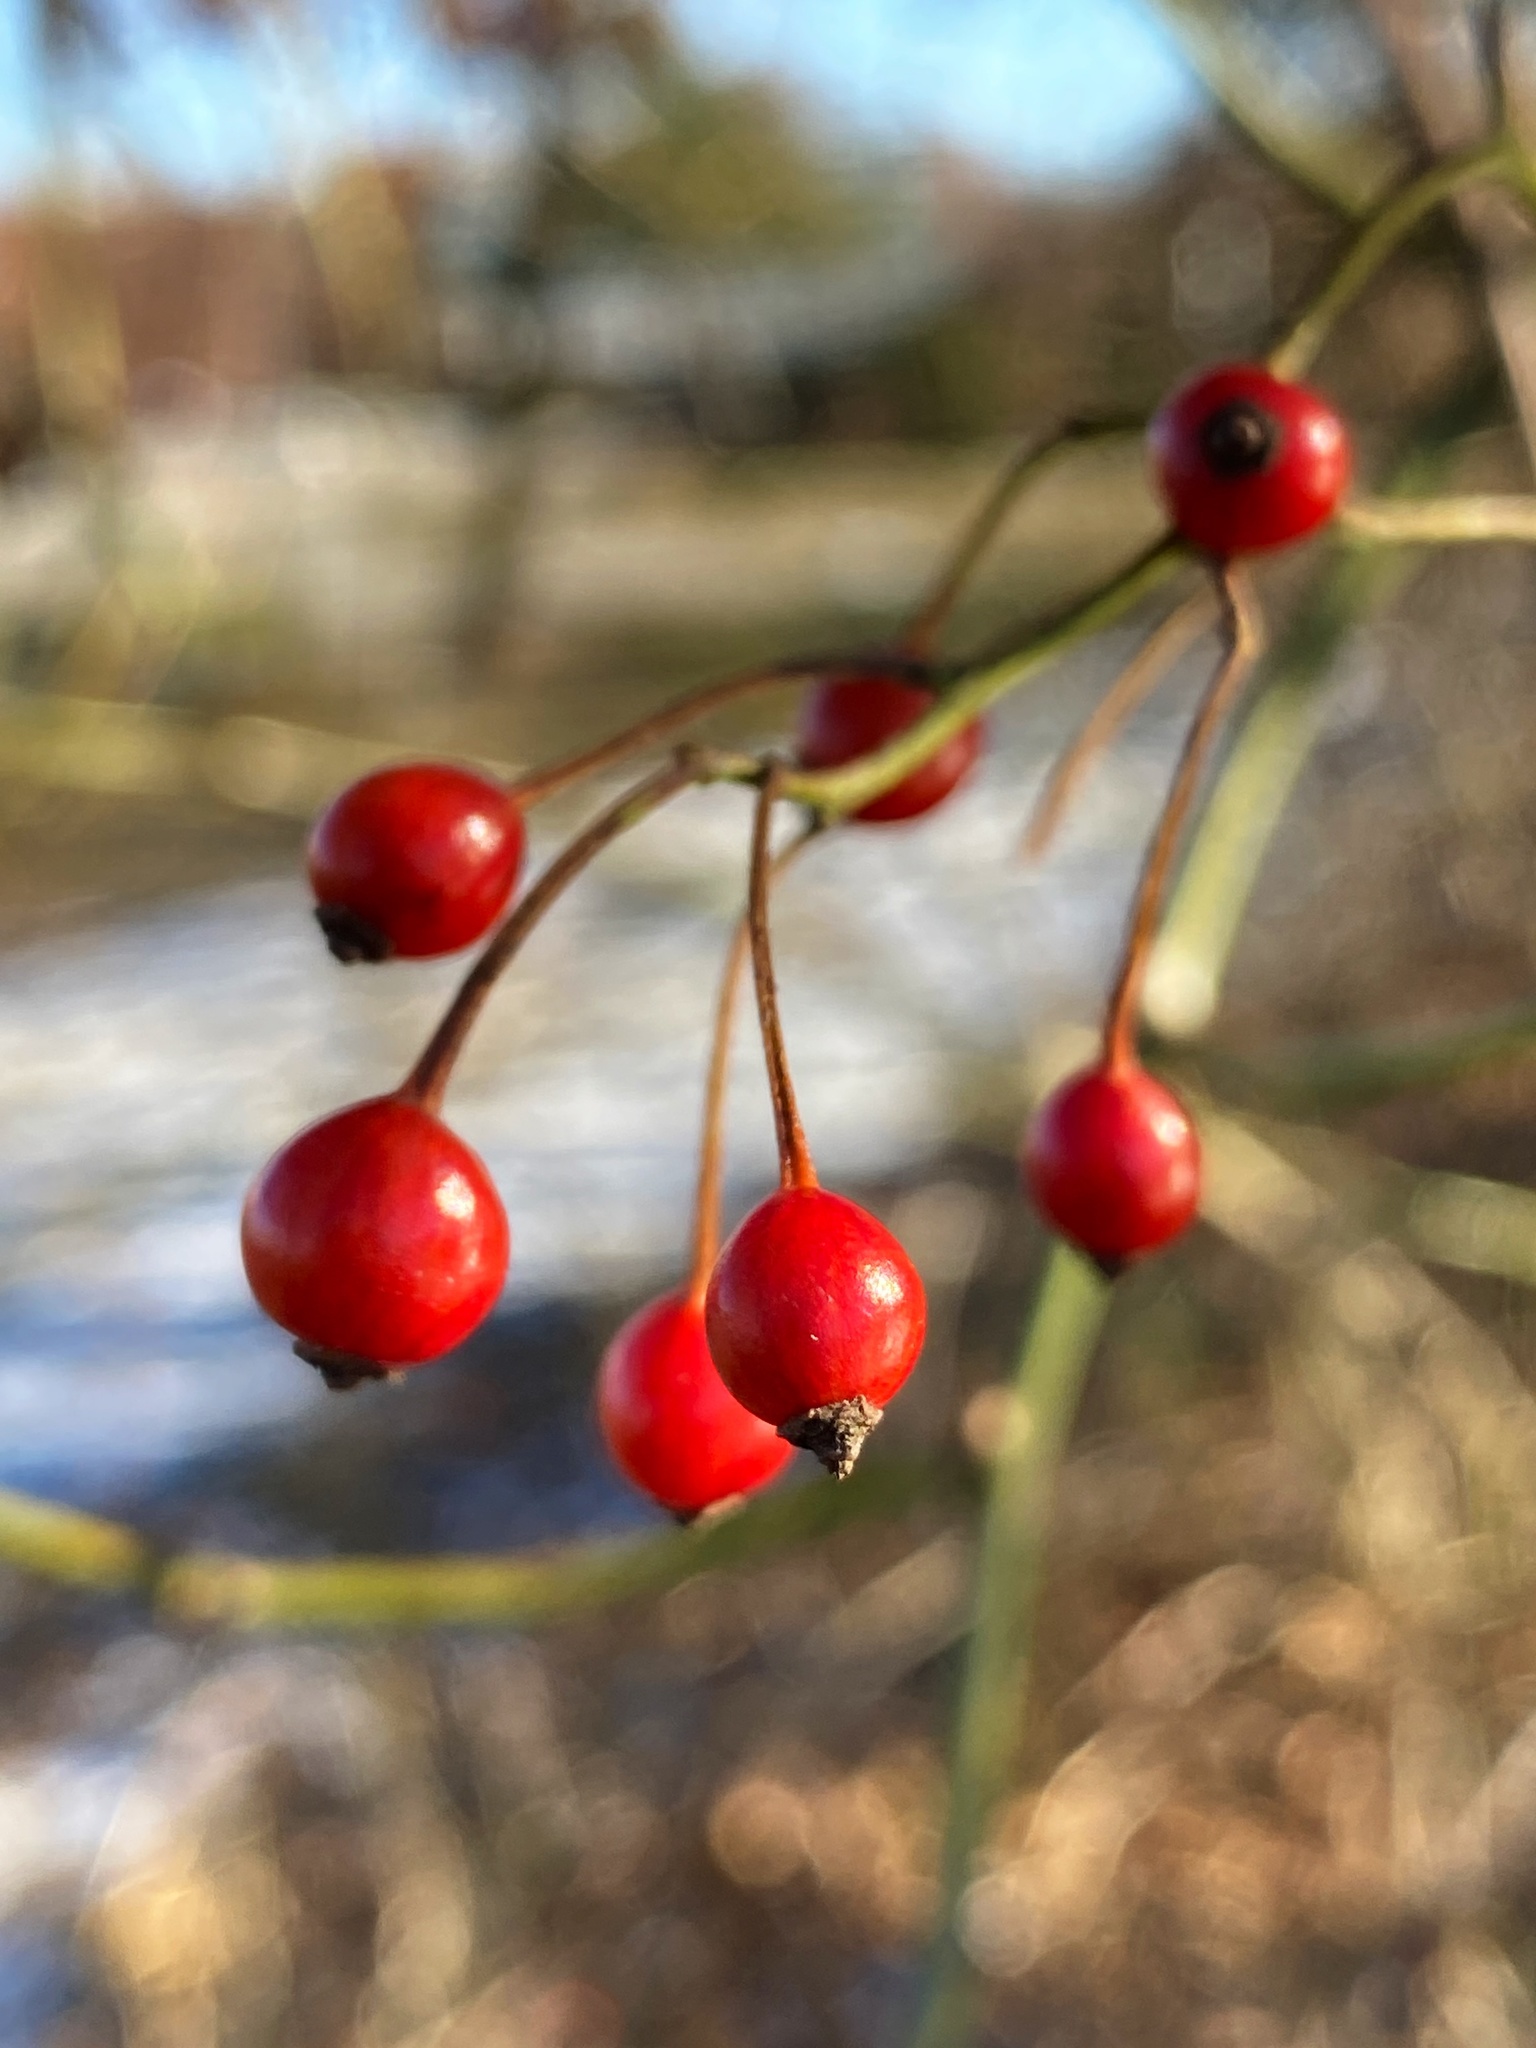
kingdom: Plantae
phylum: Tracheophyta
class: Magnoliopsida
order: Rosales
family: Rosaceae
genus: Rosa
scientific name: Rosa multiflora
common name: Multiflora rose
